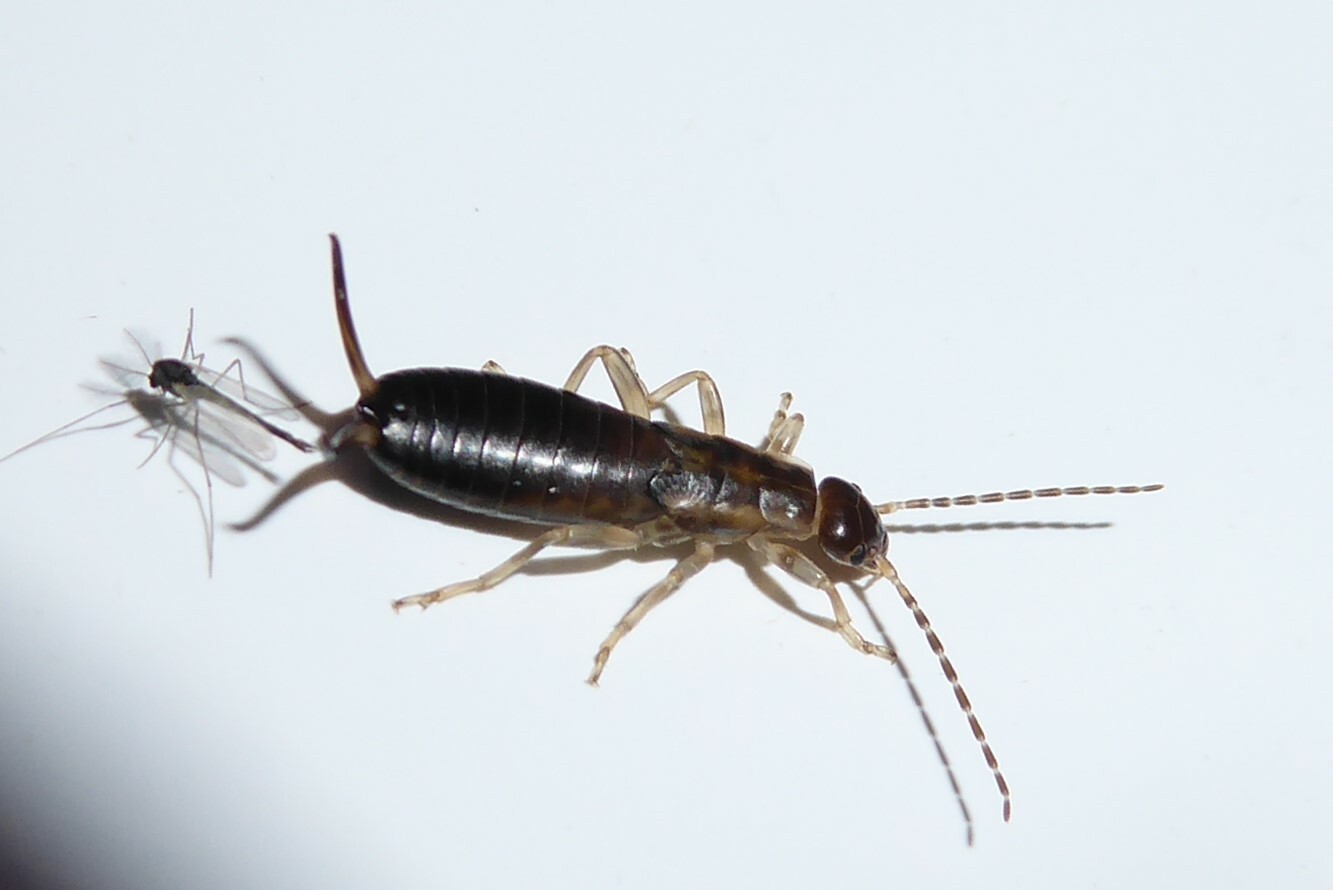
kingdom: Animalia
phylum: Arthropoda
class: Insecta
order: Dermaptera
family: Forficulidae
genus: Forficula
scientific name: Forficula dentata
